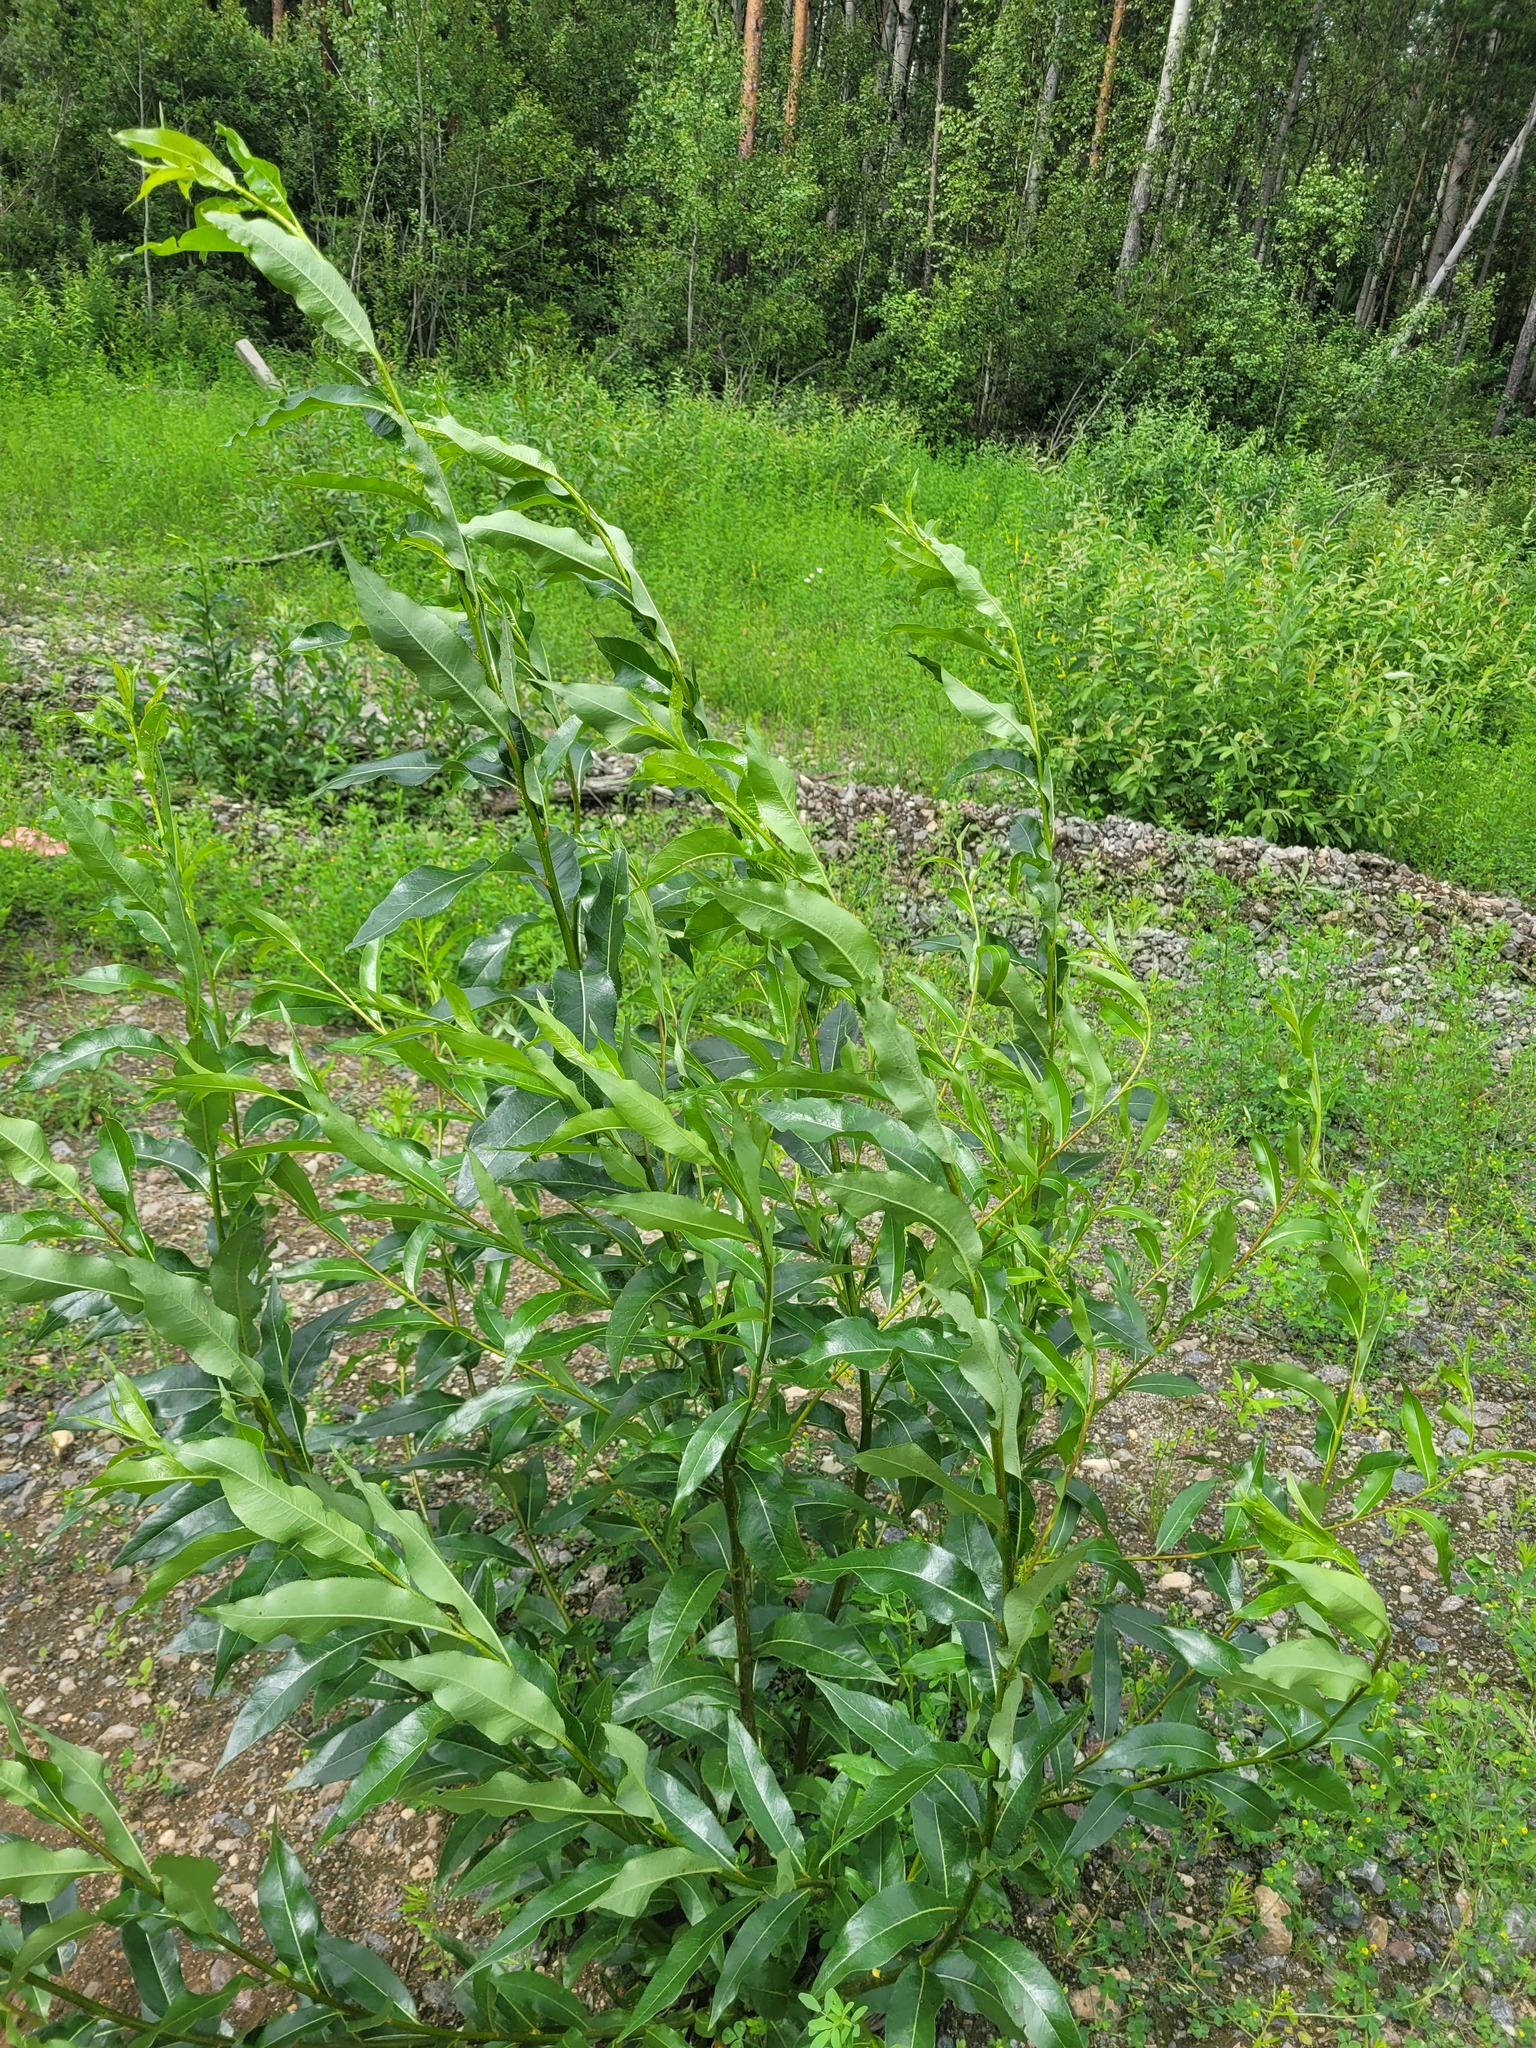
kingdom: Plantae
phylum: Tracheophyta
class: Magnoliopsida
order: Malpighiales
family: Salicaceae
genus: Salix
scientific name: Salix pentandra
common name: Bay willow
